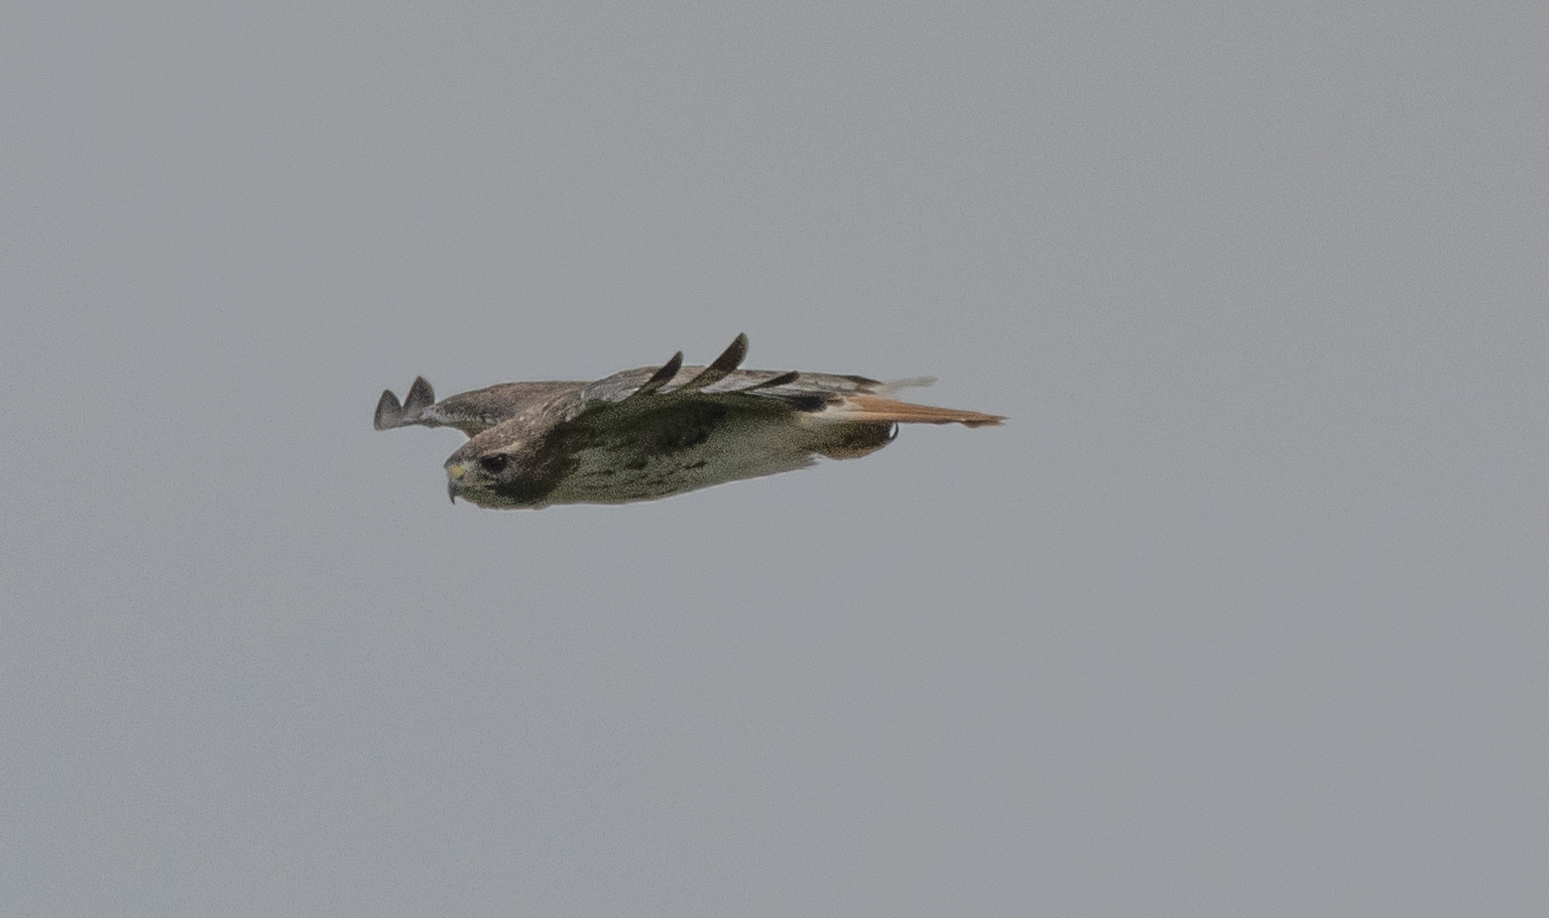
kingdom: Animalia
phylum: Chordata
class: Aves
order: Accipitriformes
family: Accipitridae
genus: Buteo
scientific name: Buteo jamaicensis
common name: Red-tailed hawk
